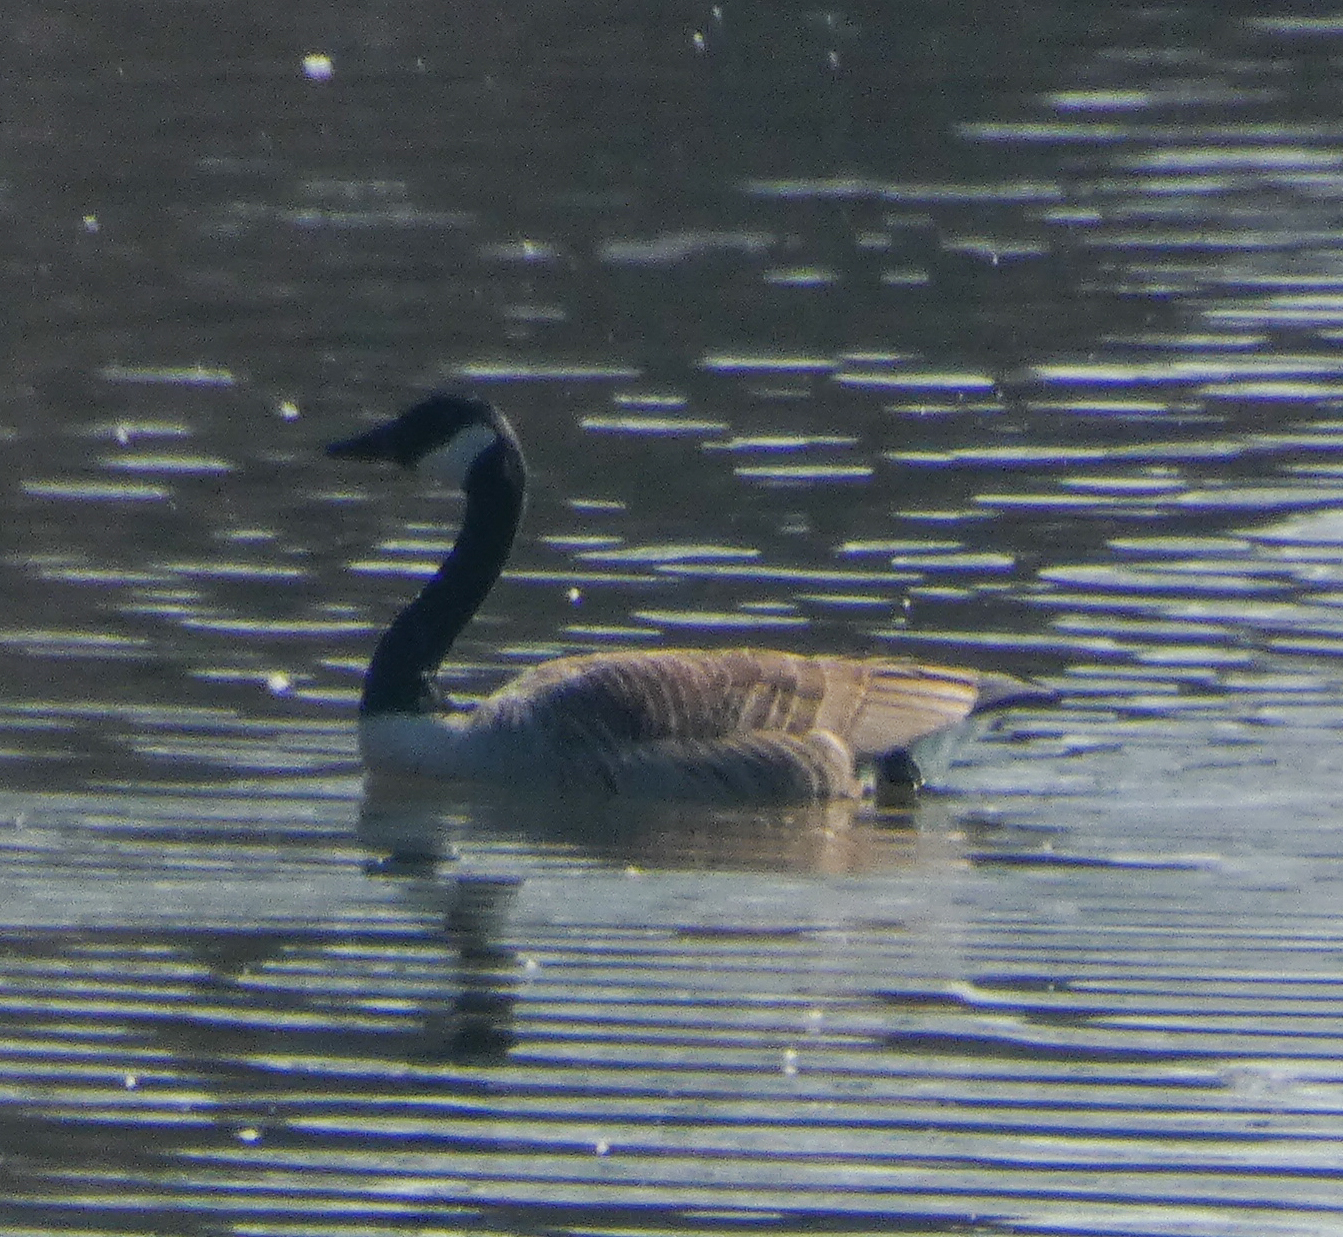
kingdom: Animalia
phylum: Chordata
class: Aves
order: Anseriformes
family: Anatidae
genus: Branta
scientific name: Branta canadensis
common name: Canada goose
